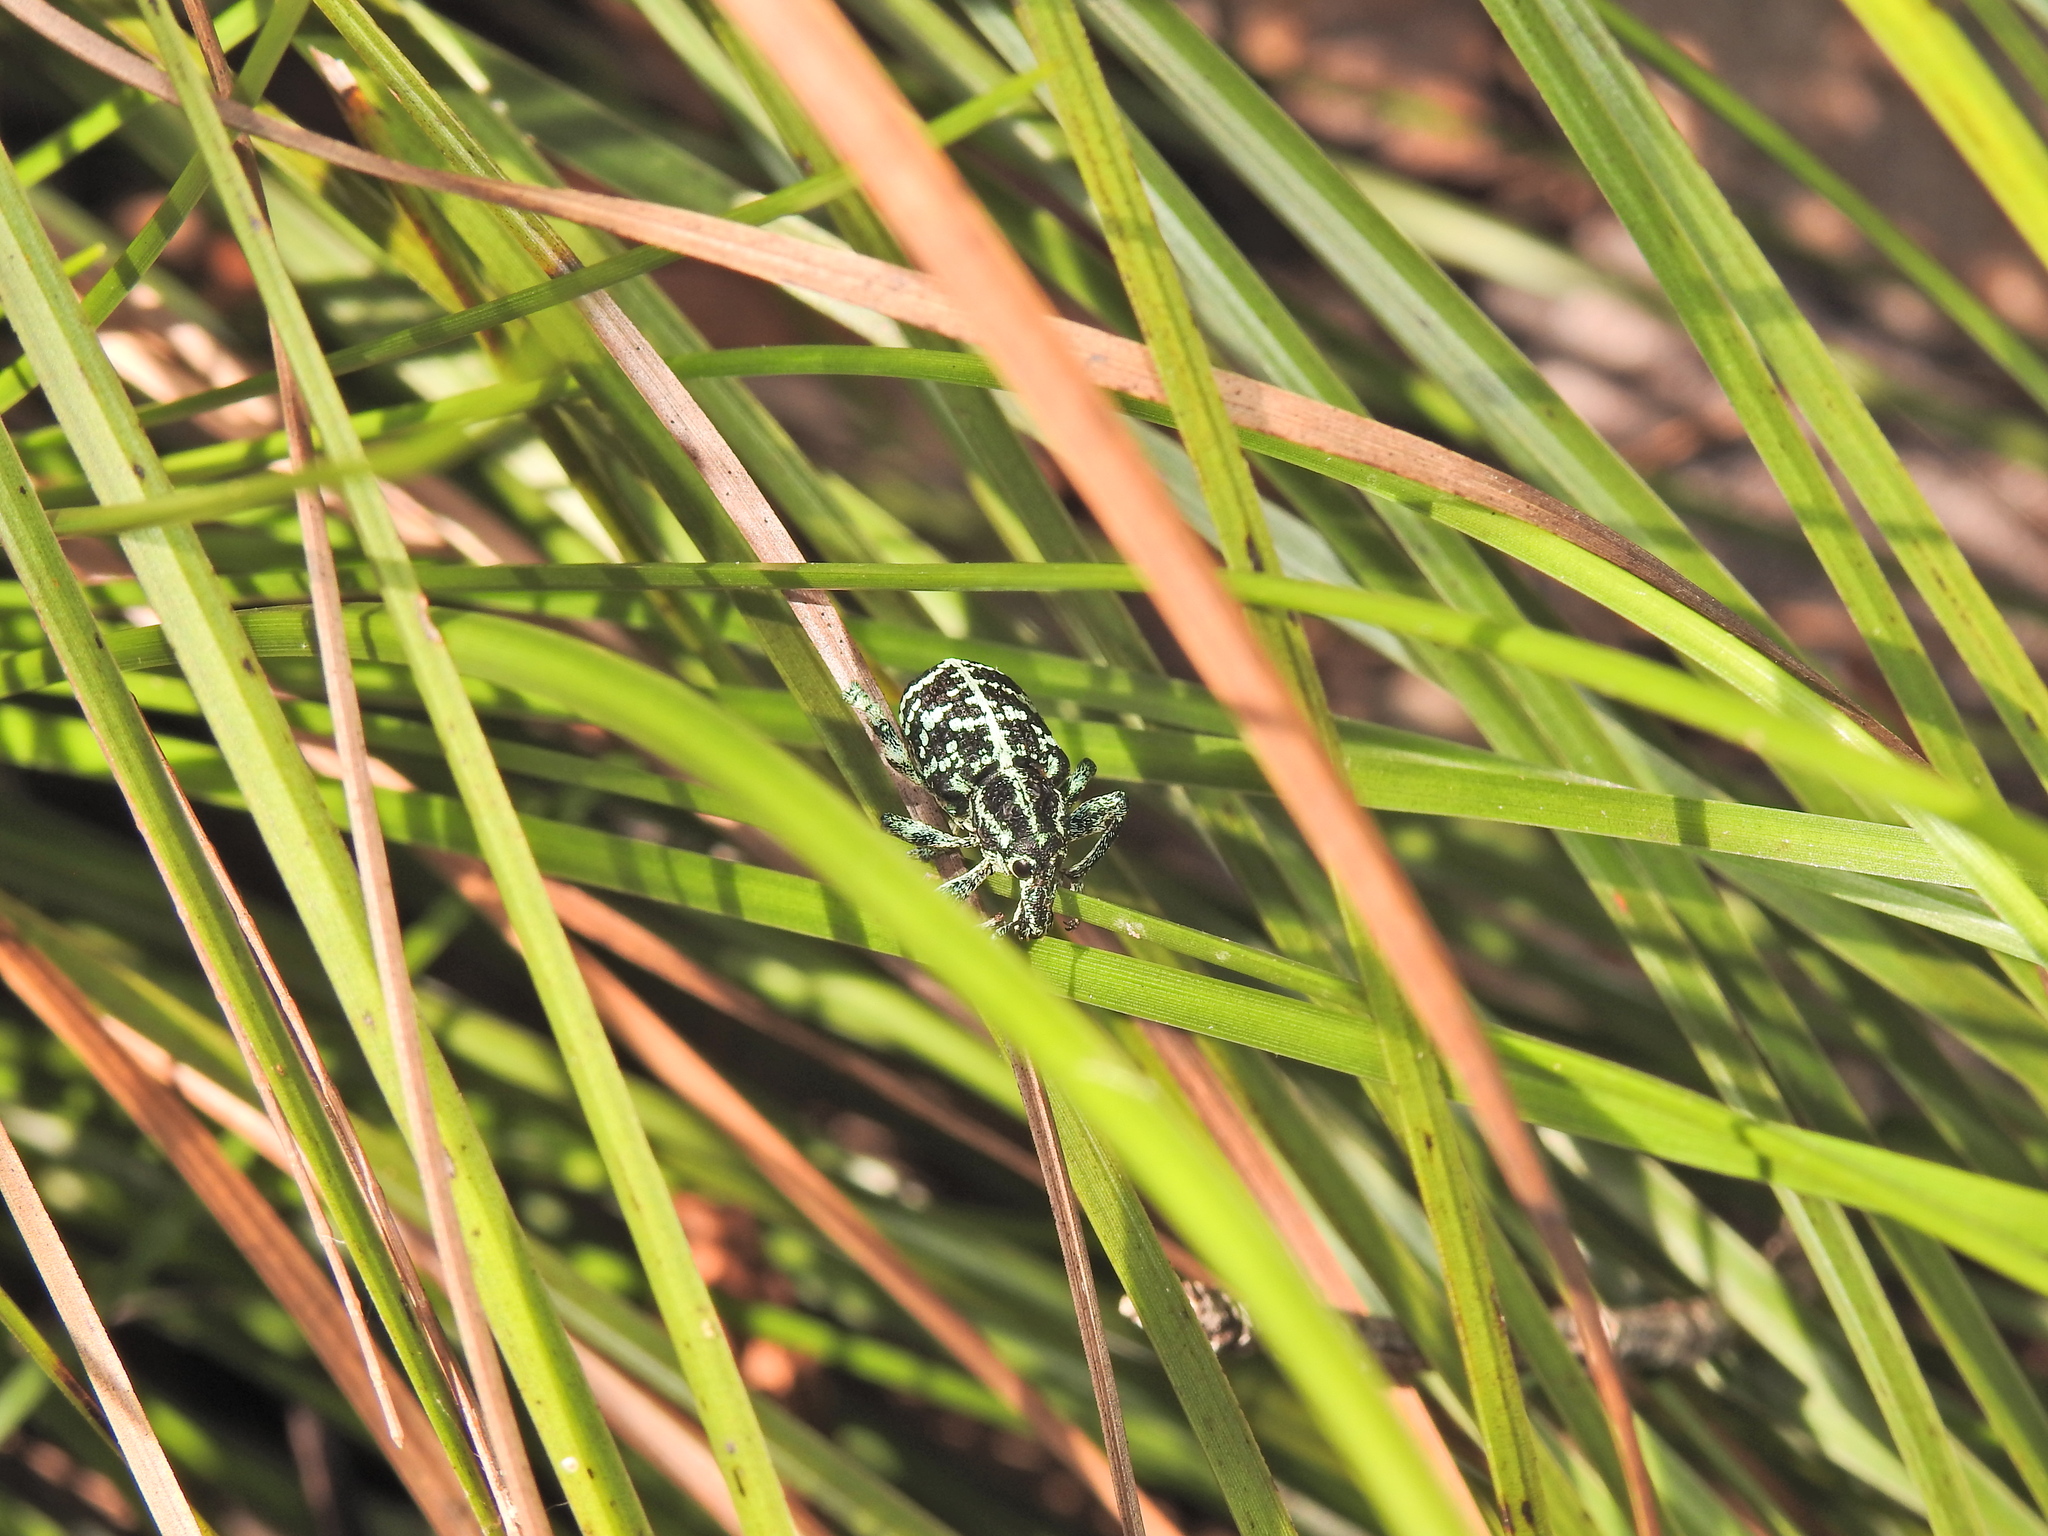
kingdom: Animalia
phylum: Arthropoda
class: Insecta
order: Coleoptera
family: Curculionidae
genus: Chrysolopus
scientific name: Chrysolopus spectabilis
